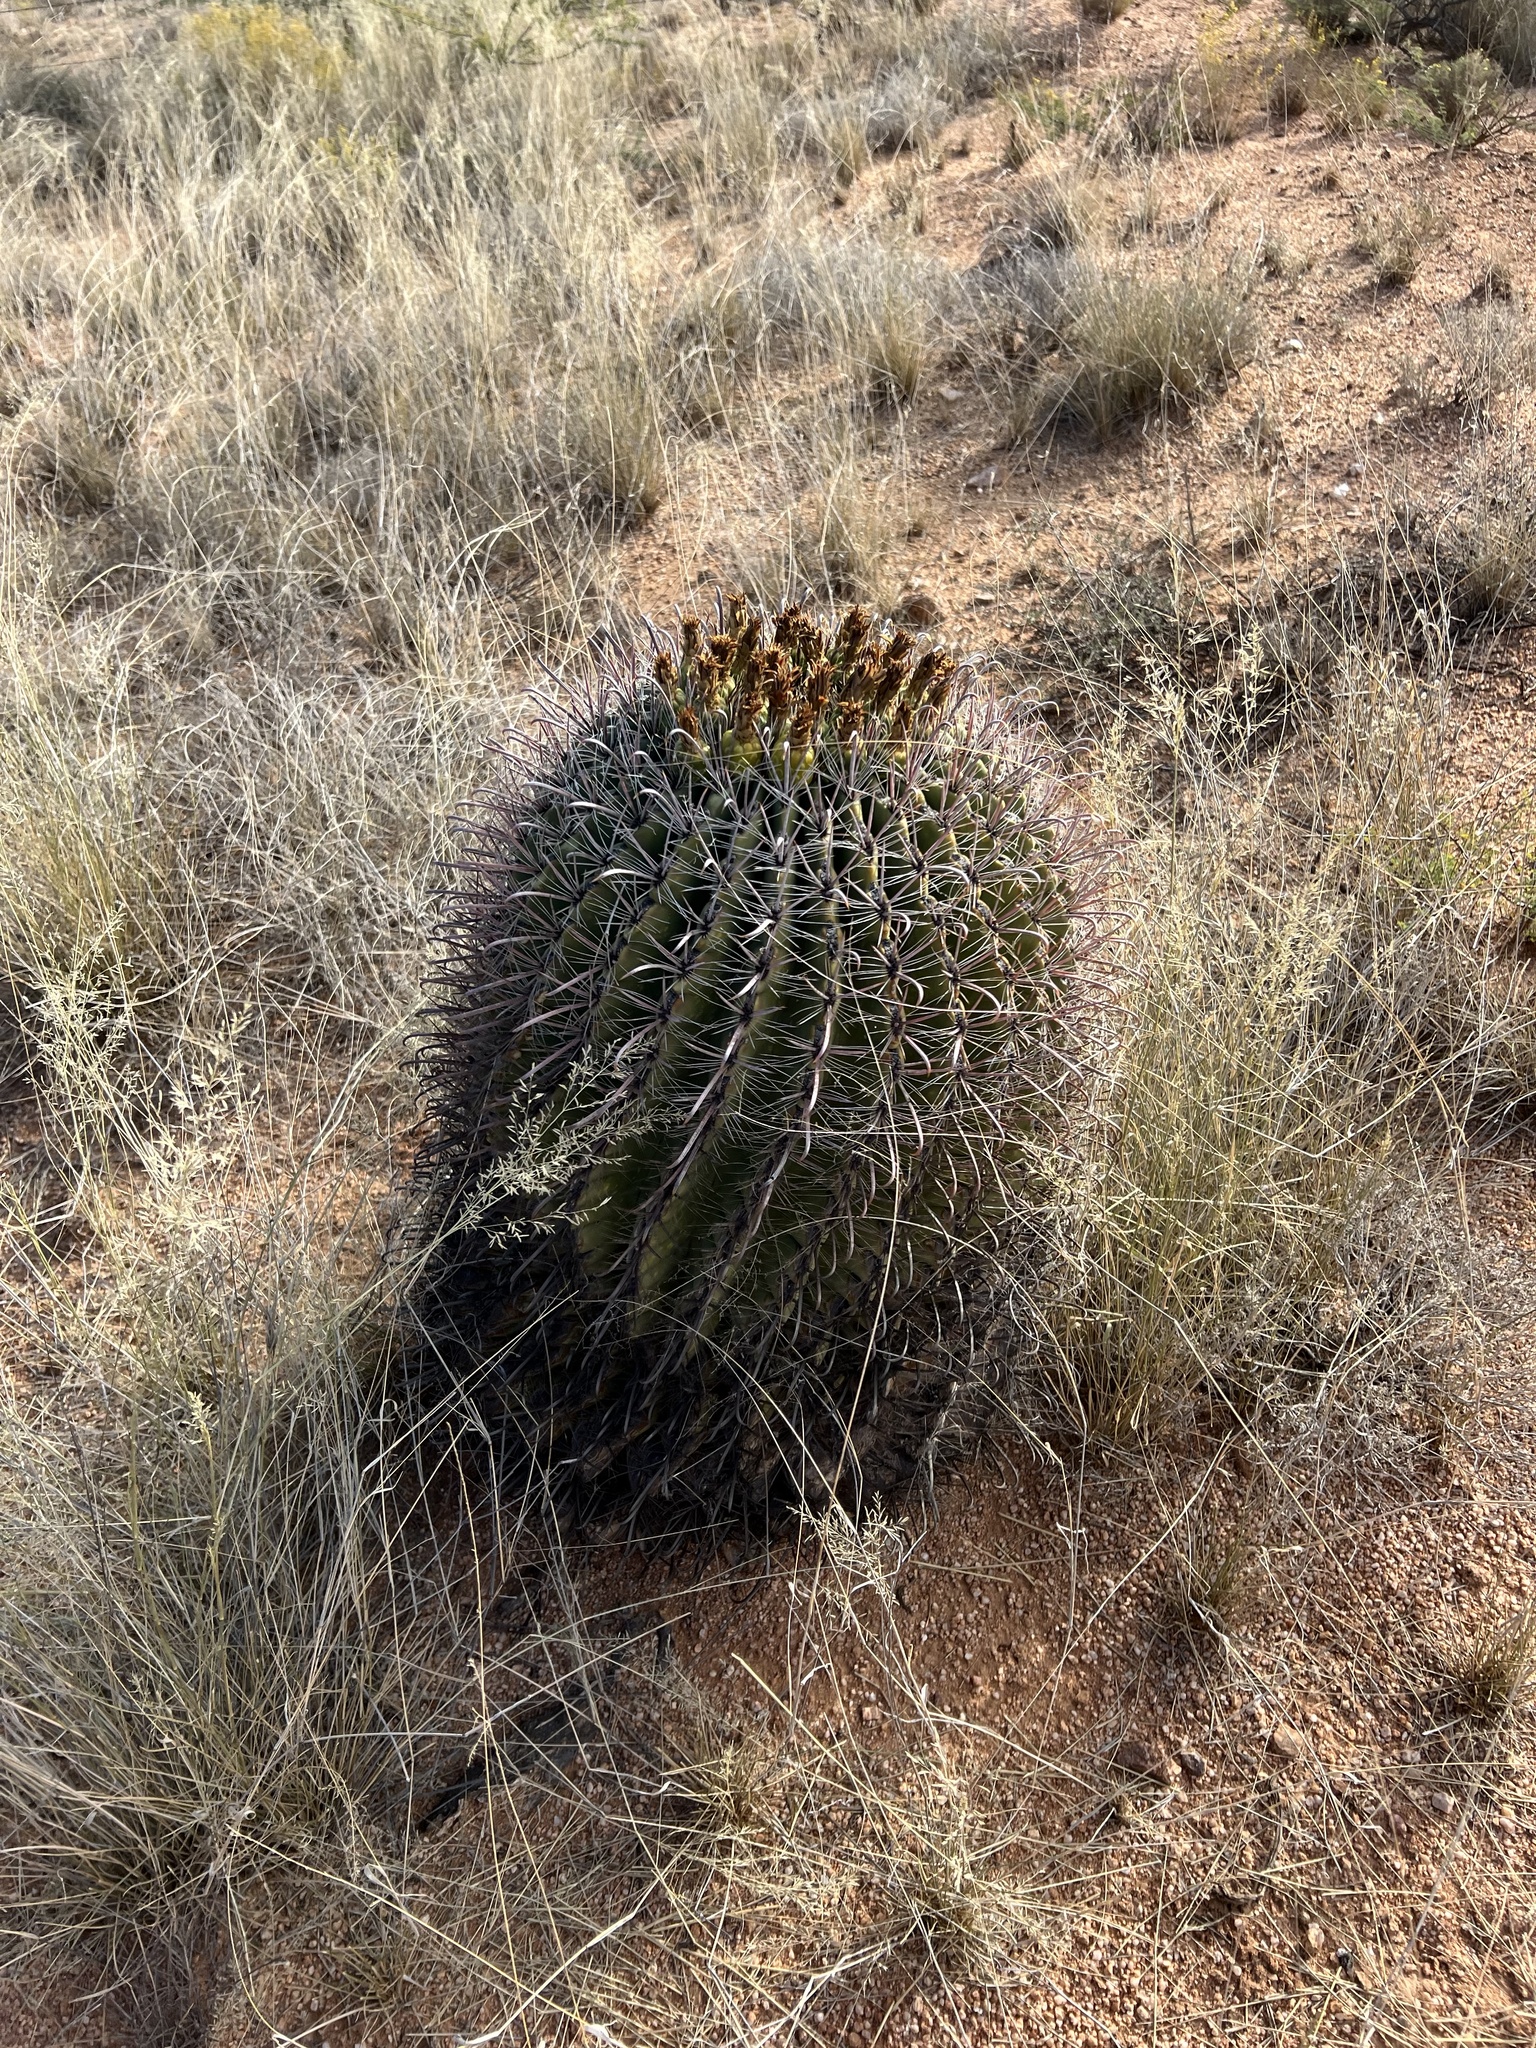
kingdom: Plantae
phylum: Tracheophyta
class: Magnoliopsida
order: Caryophyllales
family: Cactaceae
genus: Ferocactus
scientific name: Ferocactus wislizeni
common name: Candy barrel cactus
